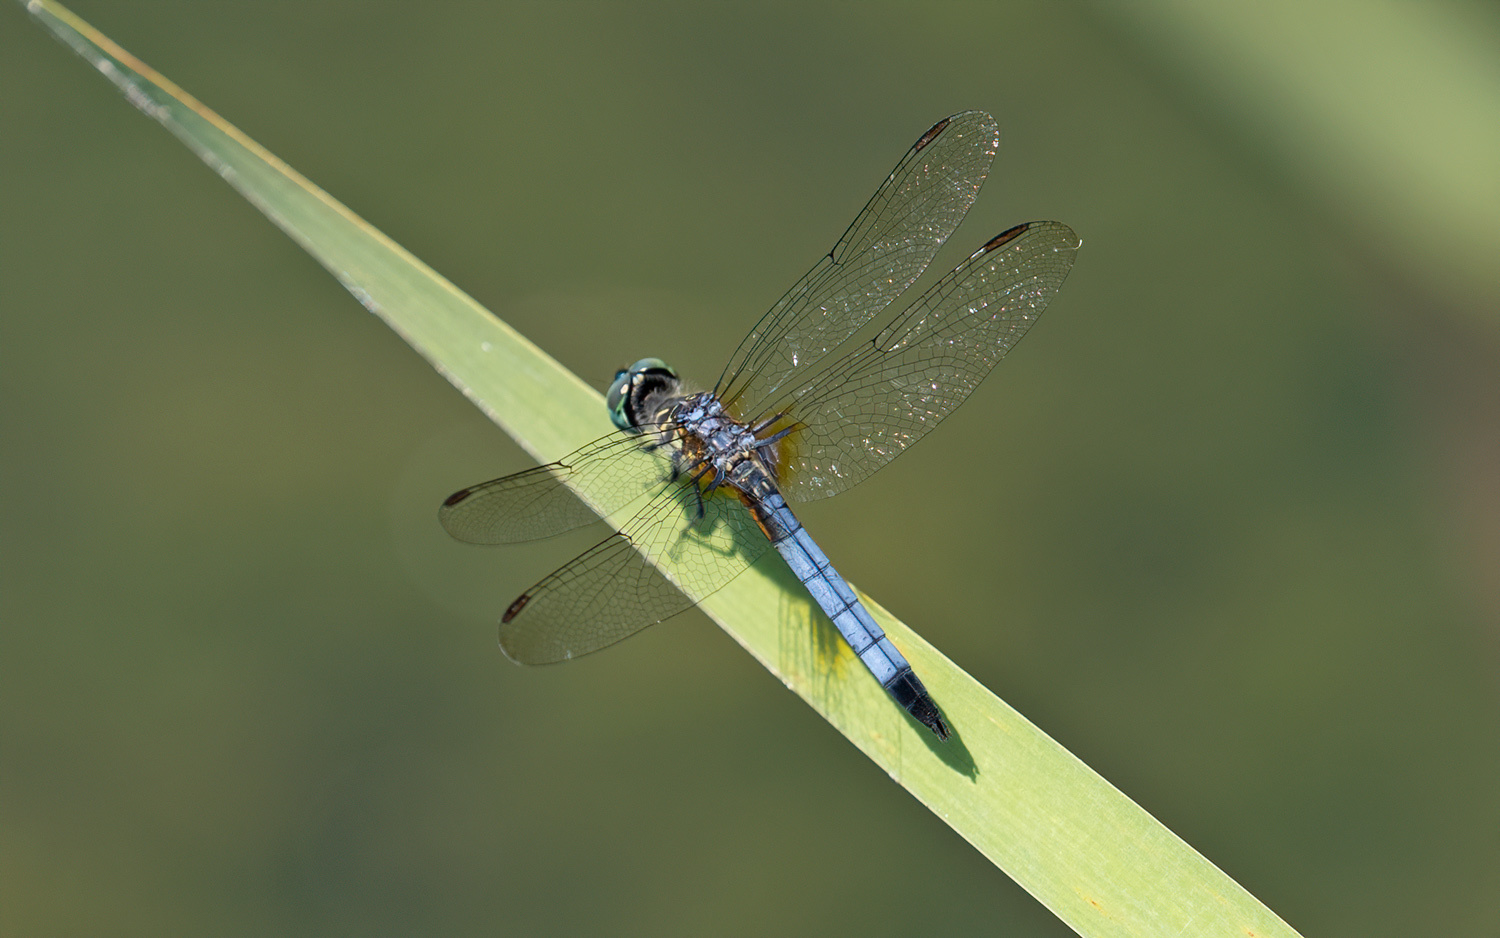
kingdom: Animalia
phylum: Arthropoda
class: Insecta
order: Odonata
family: Libellulidae
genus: Pachydiplax
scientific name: Pachydiplax longipennis
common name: Blue dasher
